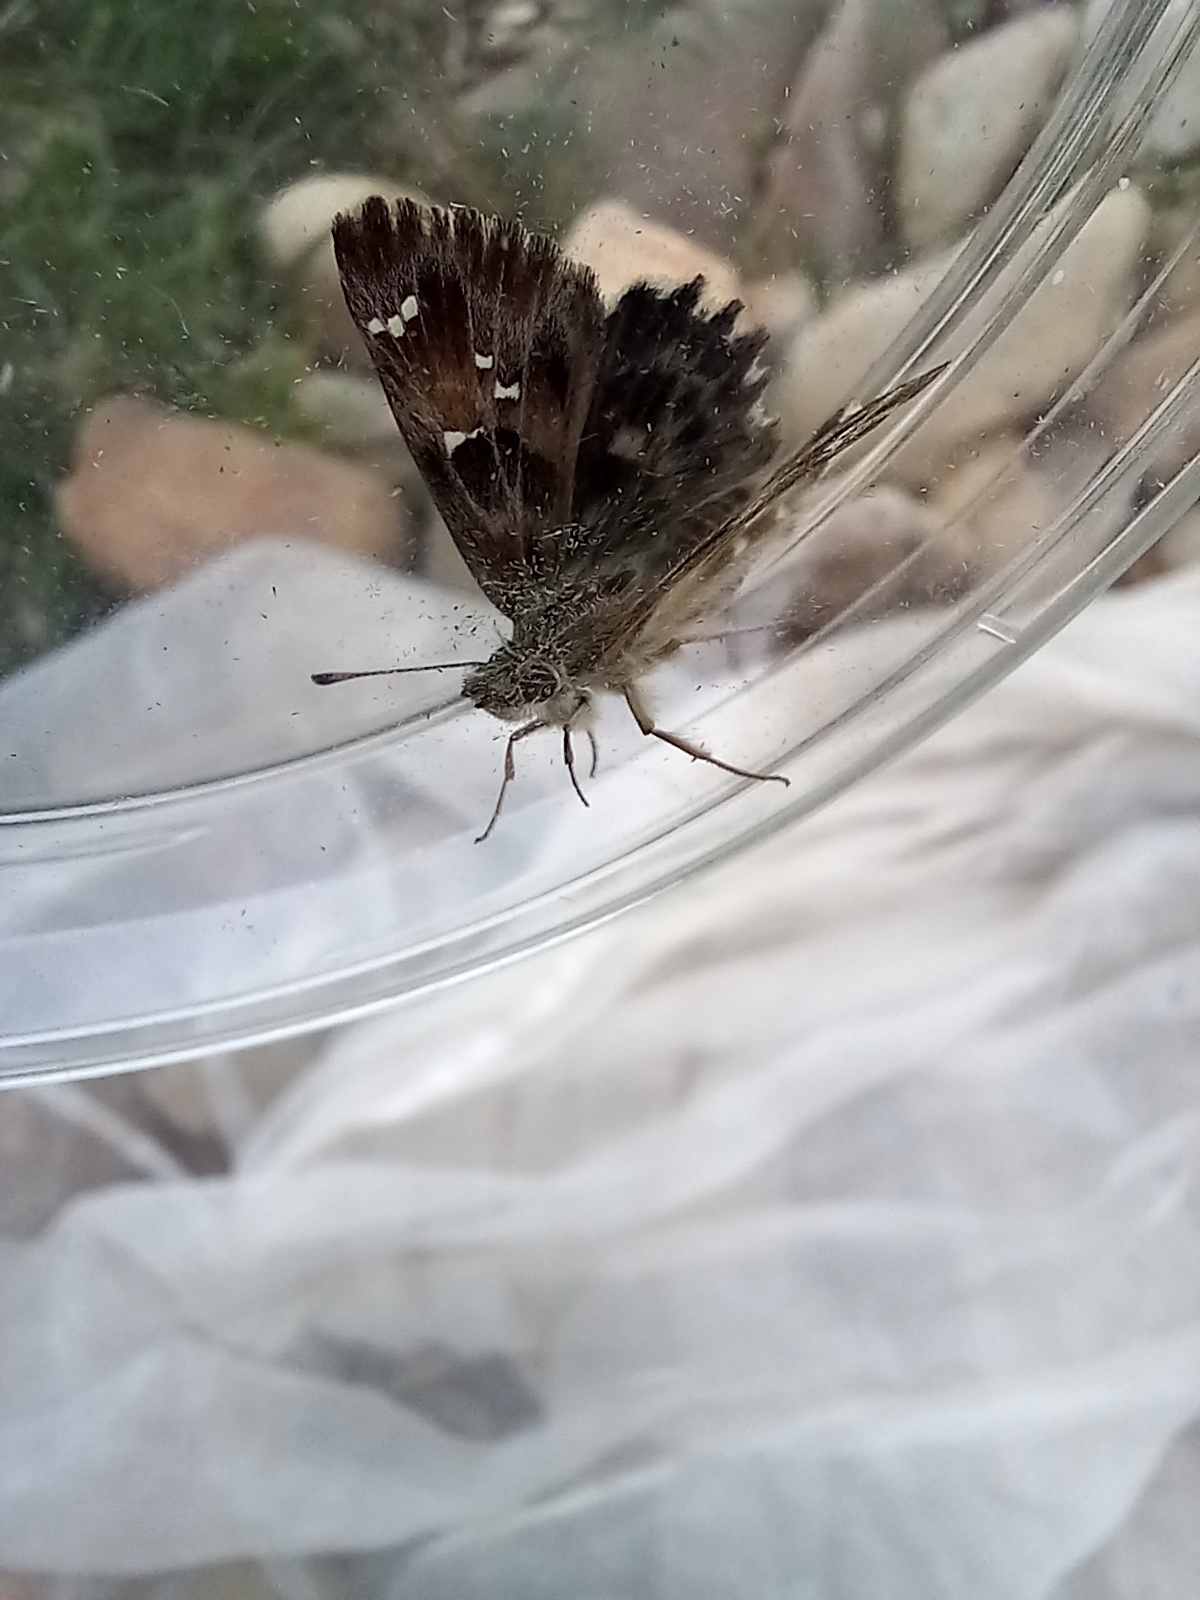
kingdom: Animalia
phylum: Arthropoda
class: Insecta
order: Lepidoptera
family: Hesperiidae
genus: Carcharodus
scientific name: Carcharodus alceae
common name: Mallow skipper
